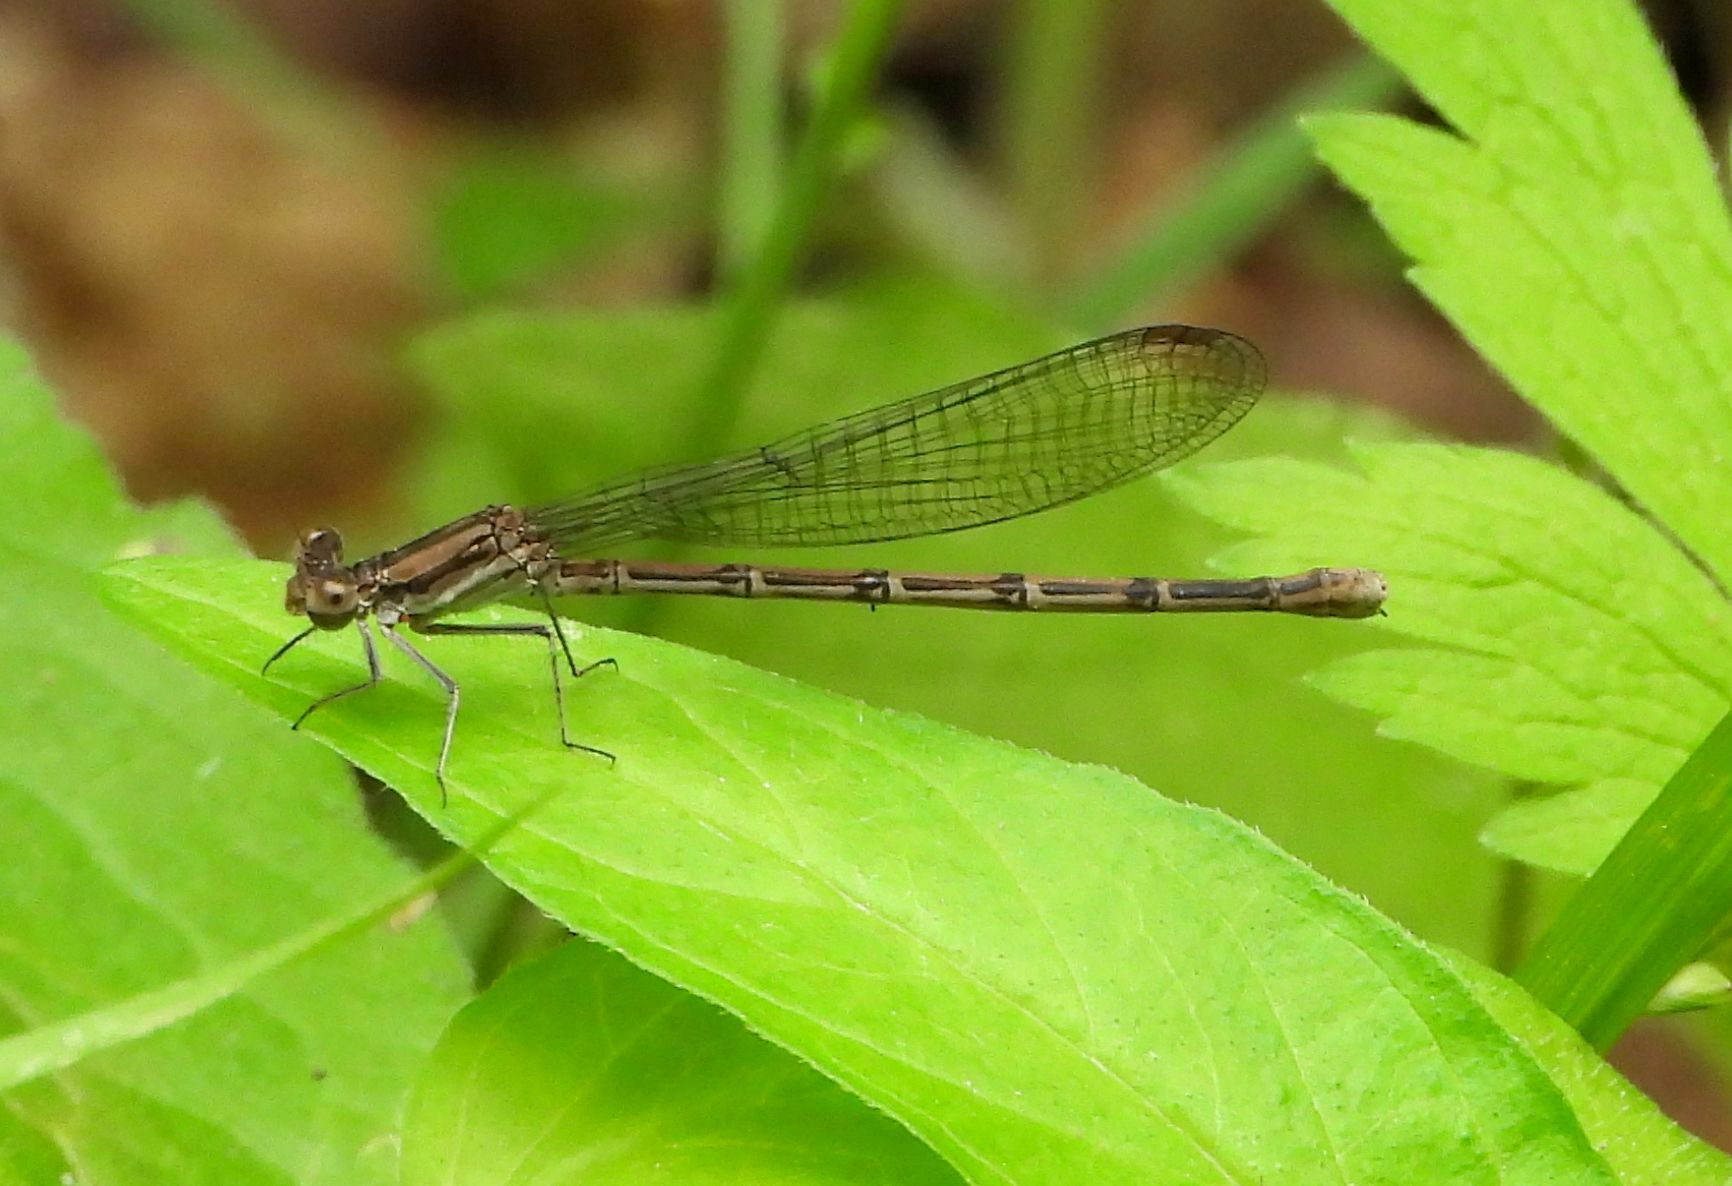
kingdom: Animalia
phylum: Arthropoda
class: Insecta
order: Odonata
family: Coenagrionidae
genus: Argia
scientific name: Argia fumipennis
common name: Variable dancer
